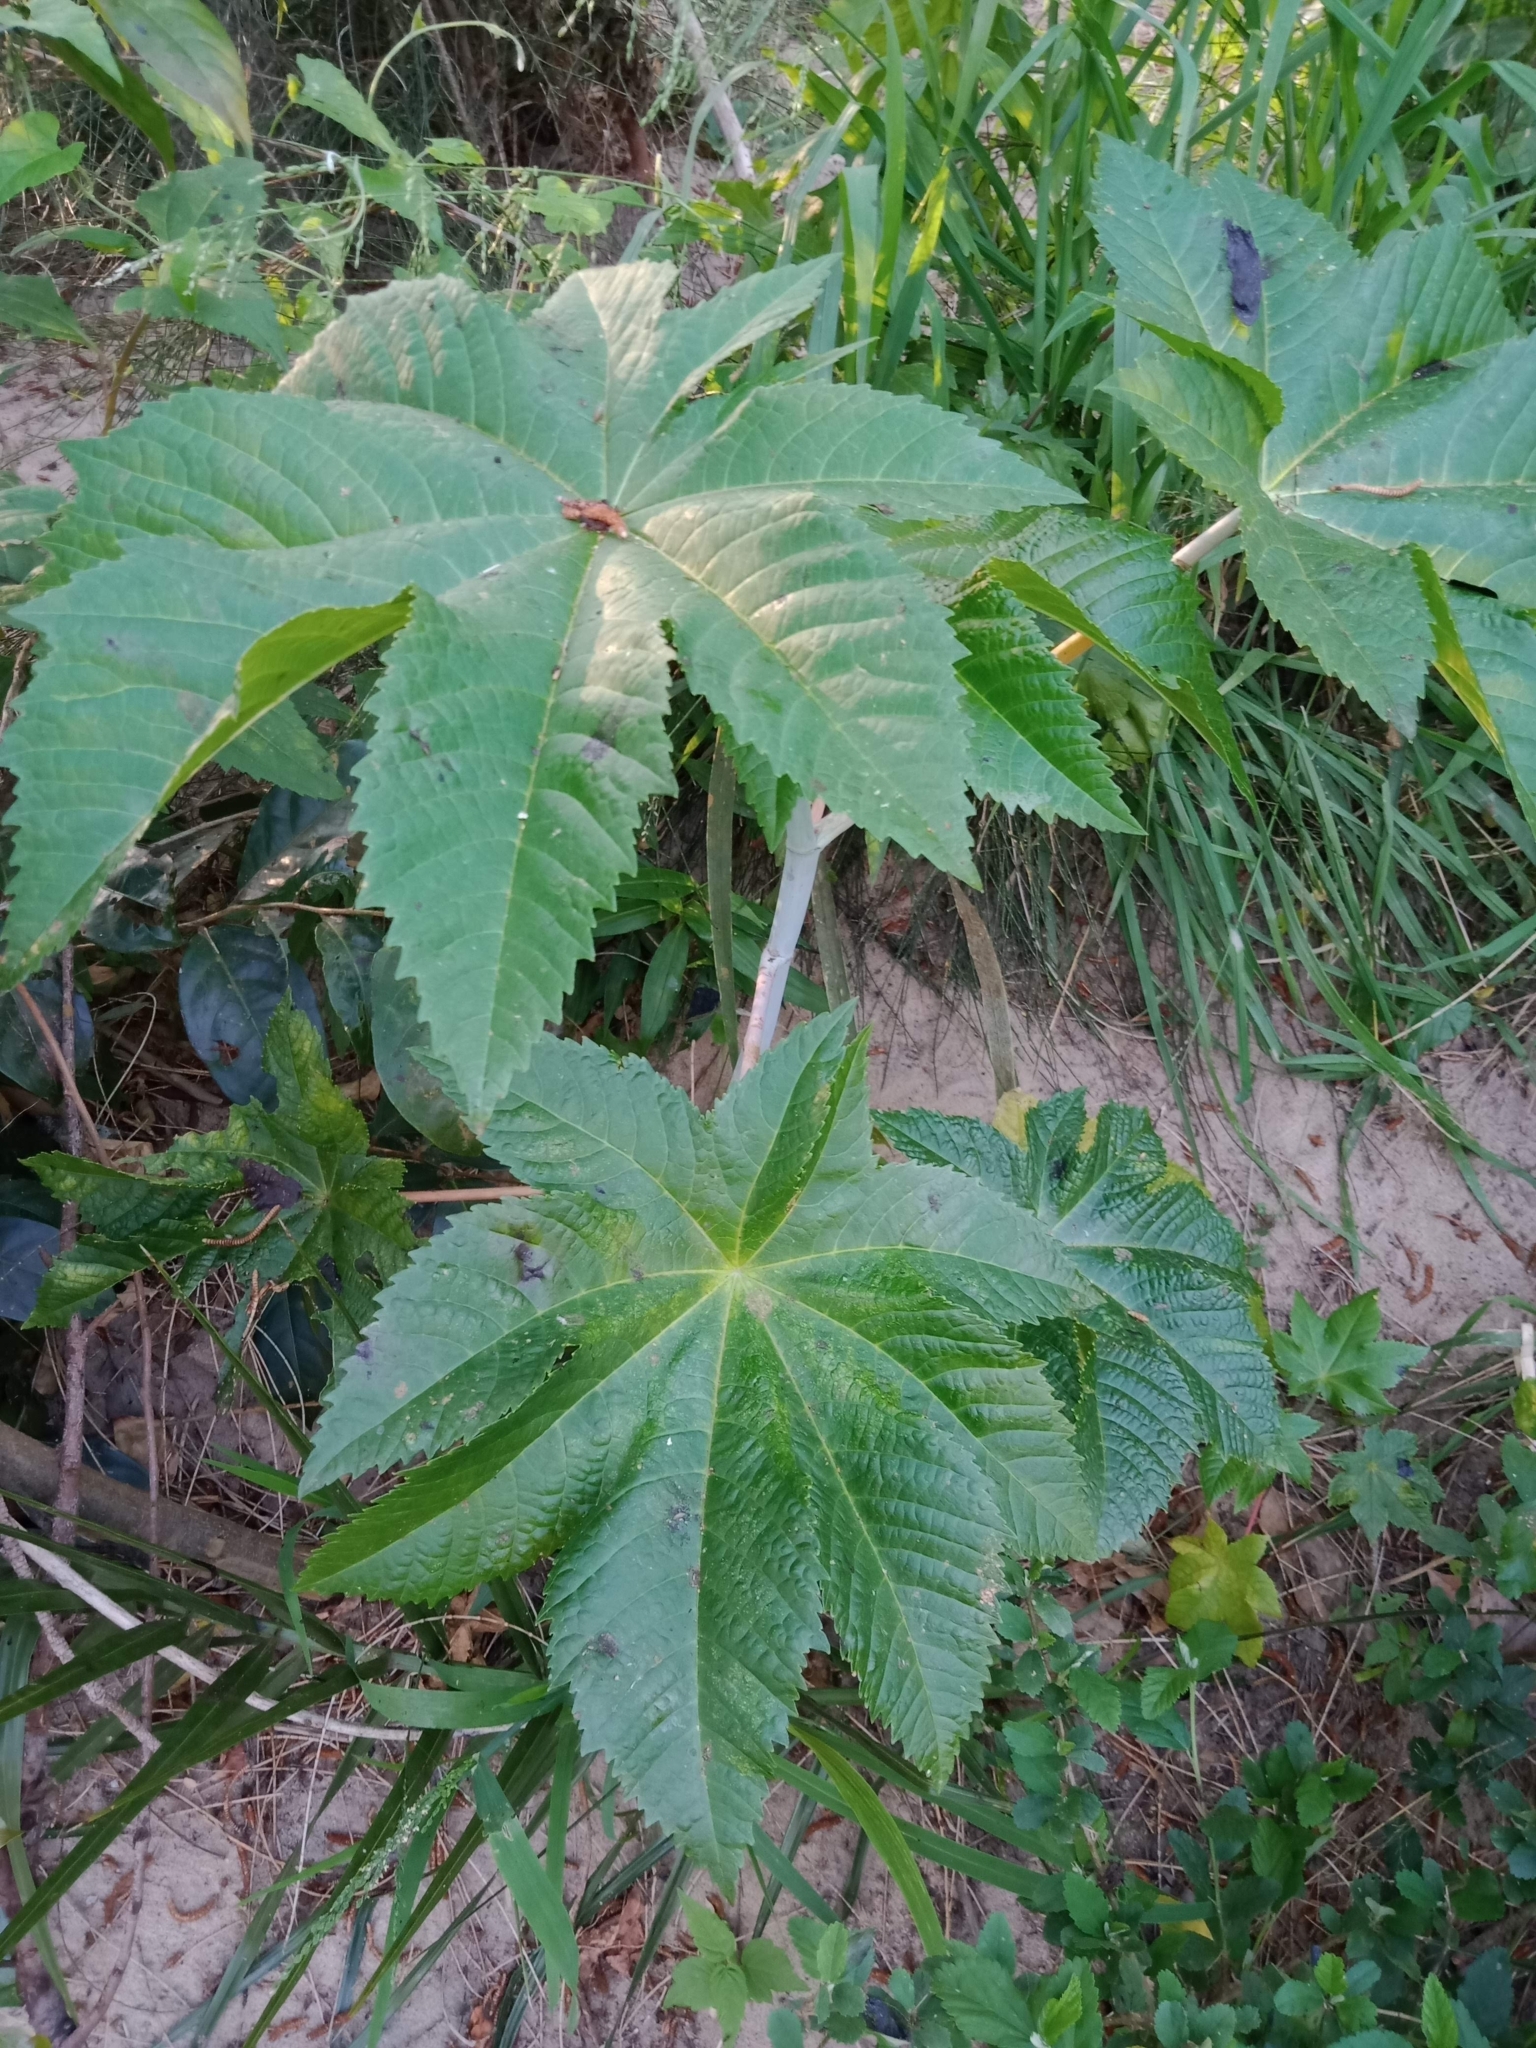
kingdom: Plantae
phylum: Tracheophyta
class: Magnoliopsida
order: Malpighiales
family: Euphorbiaceae
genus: Ricinus
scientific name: Ricinus communis
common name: Castor-oil-plant
